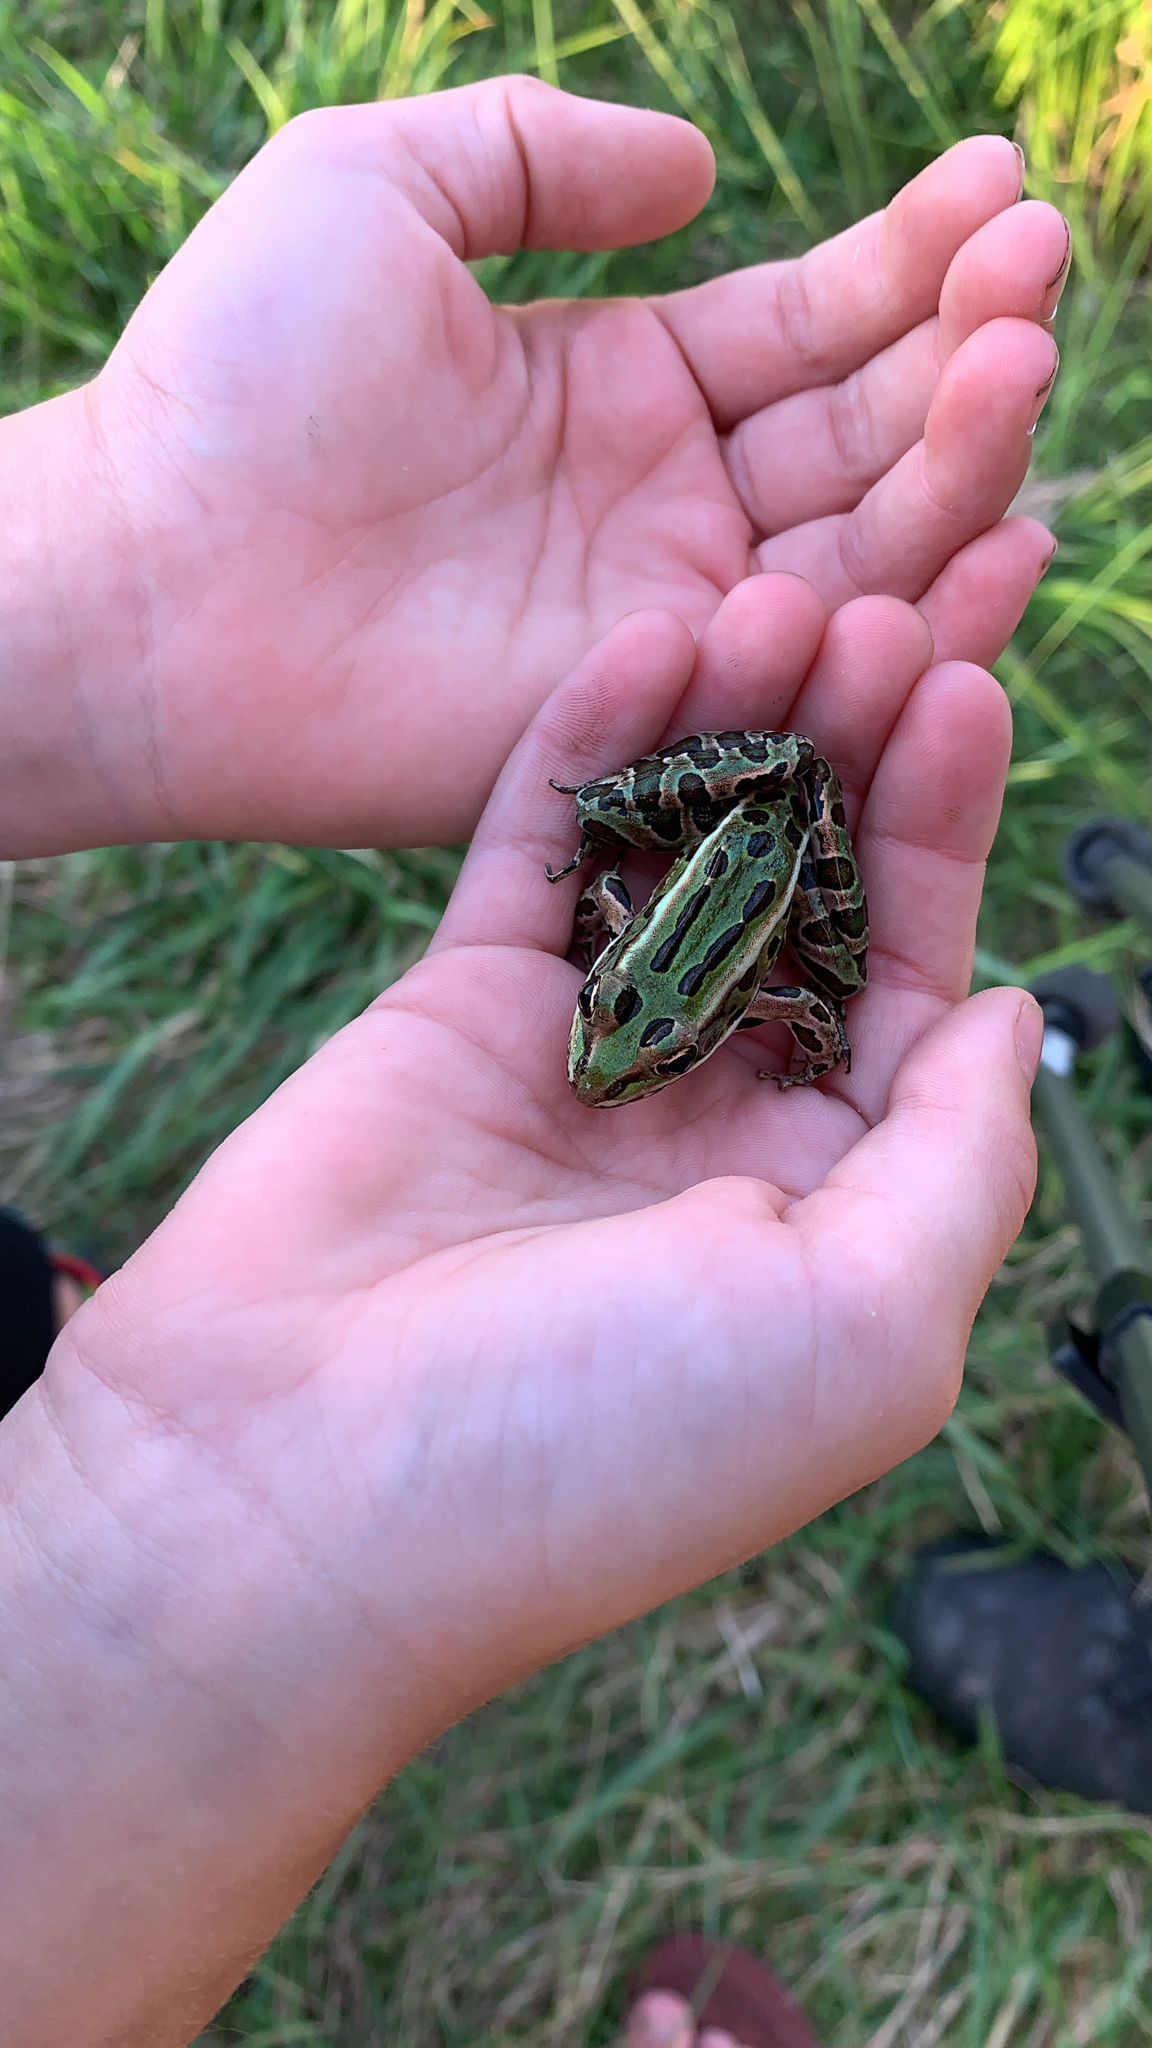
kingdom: Animalia
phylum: Chordata
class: Amphibia
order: Anura
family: Ranidae
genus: Lithobates
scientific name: Lithobates pipiens
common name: Northern leopard frog
